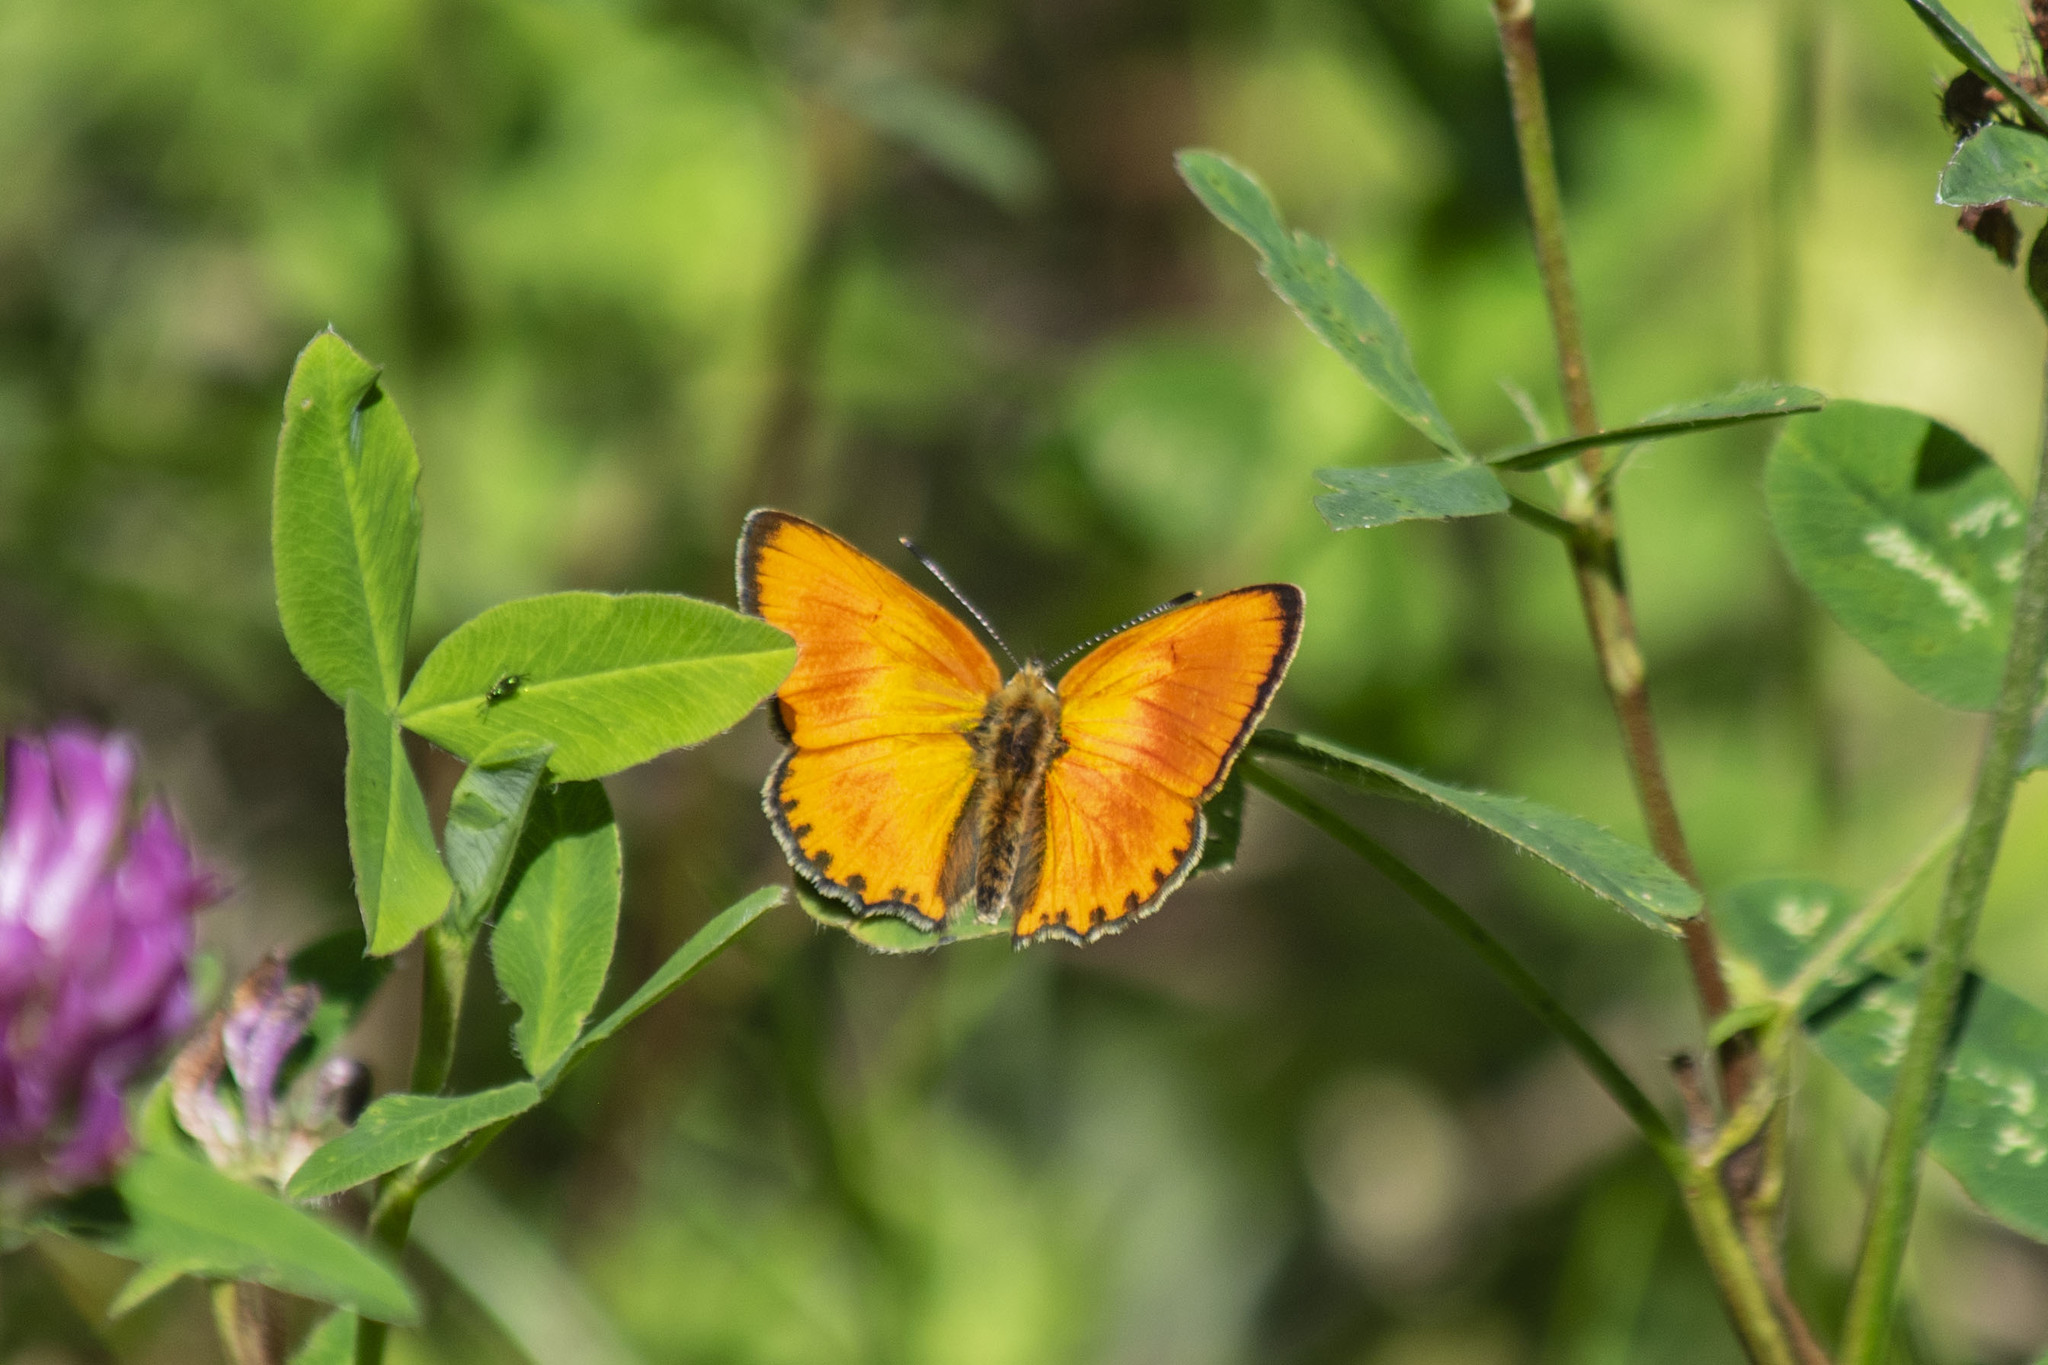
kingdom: Animalia
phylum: Arthropoda
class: Insecta
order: Lepidoptera
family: Lycaenidae
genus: Lycaena
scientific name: Lycaena virgaureae
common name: Scarce copper
